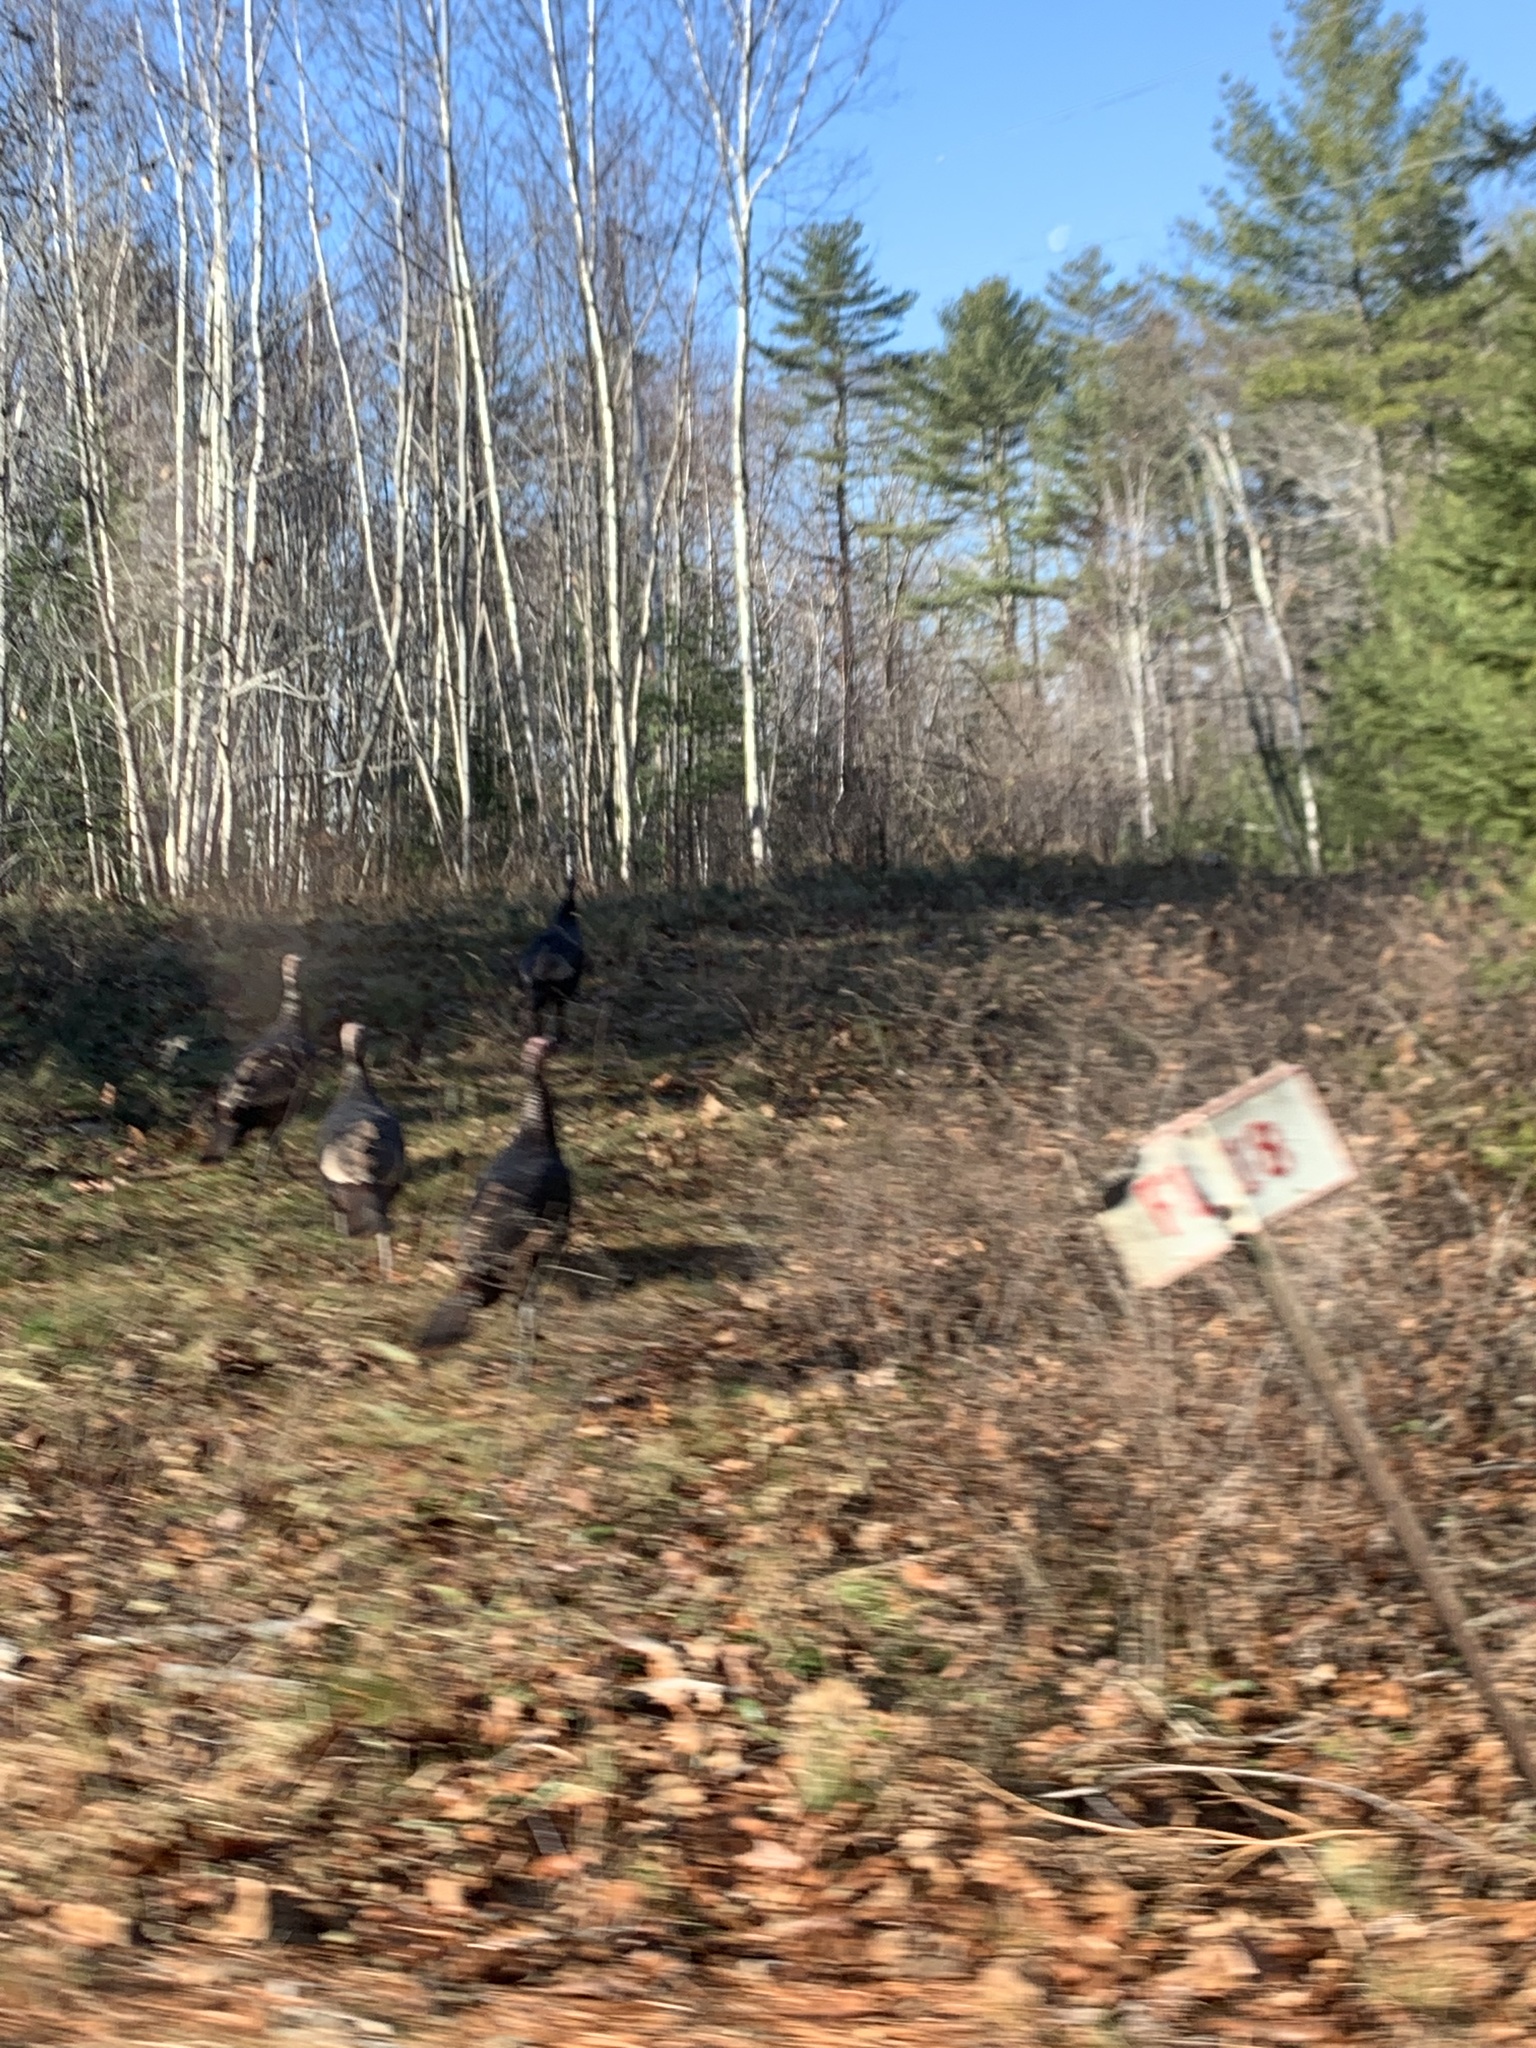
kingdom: Animalia
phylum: Chordata
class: Aves
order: Galliformes
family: Phasianidae
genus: Meleagris
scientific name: Meleagris gallopavo
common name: Wild turkey
